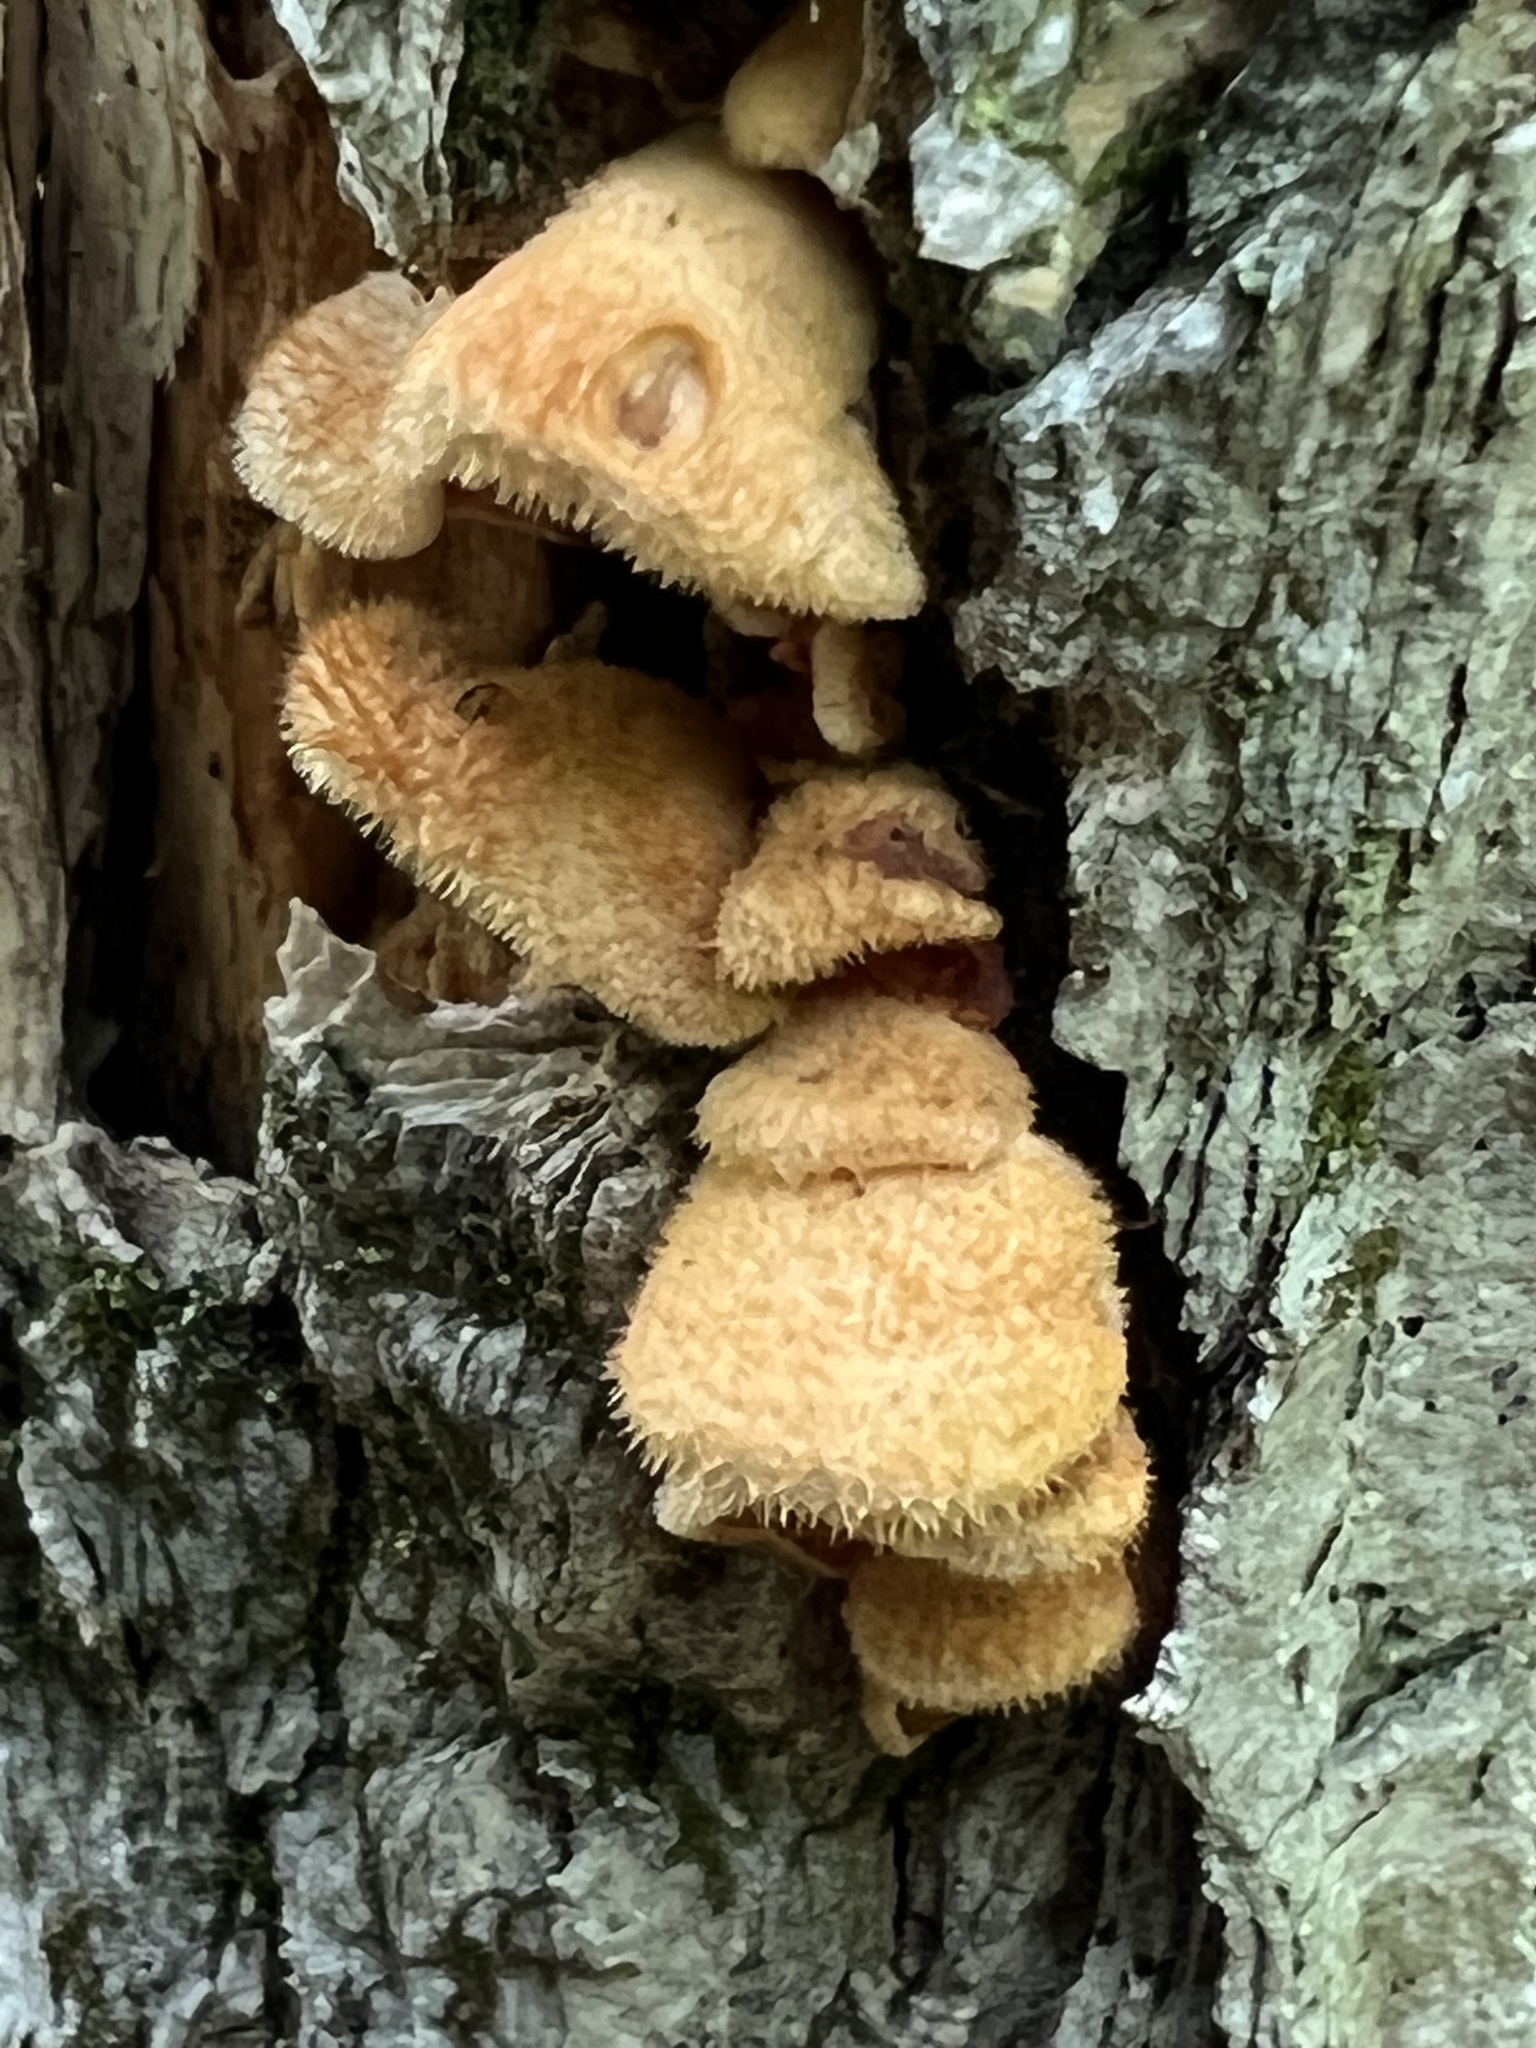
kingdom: Fungi
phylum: Basidiomycota
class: Agaricomycetes
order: Agaricales
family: Phyllotopsidaceae
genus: Phyllotopsis
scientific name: Phyllotopsis nidulans
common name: Orange mock oyster
